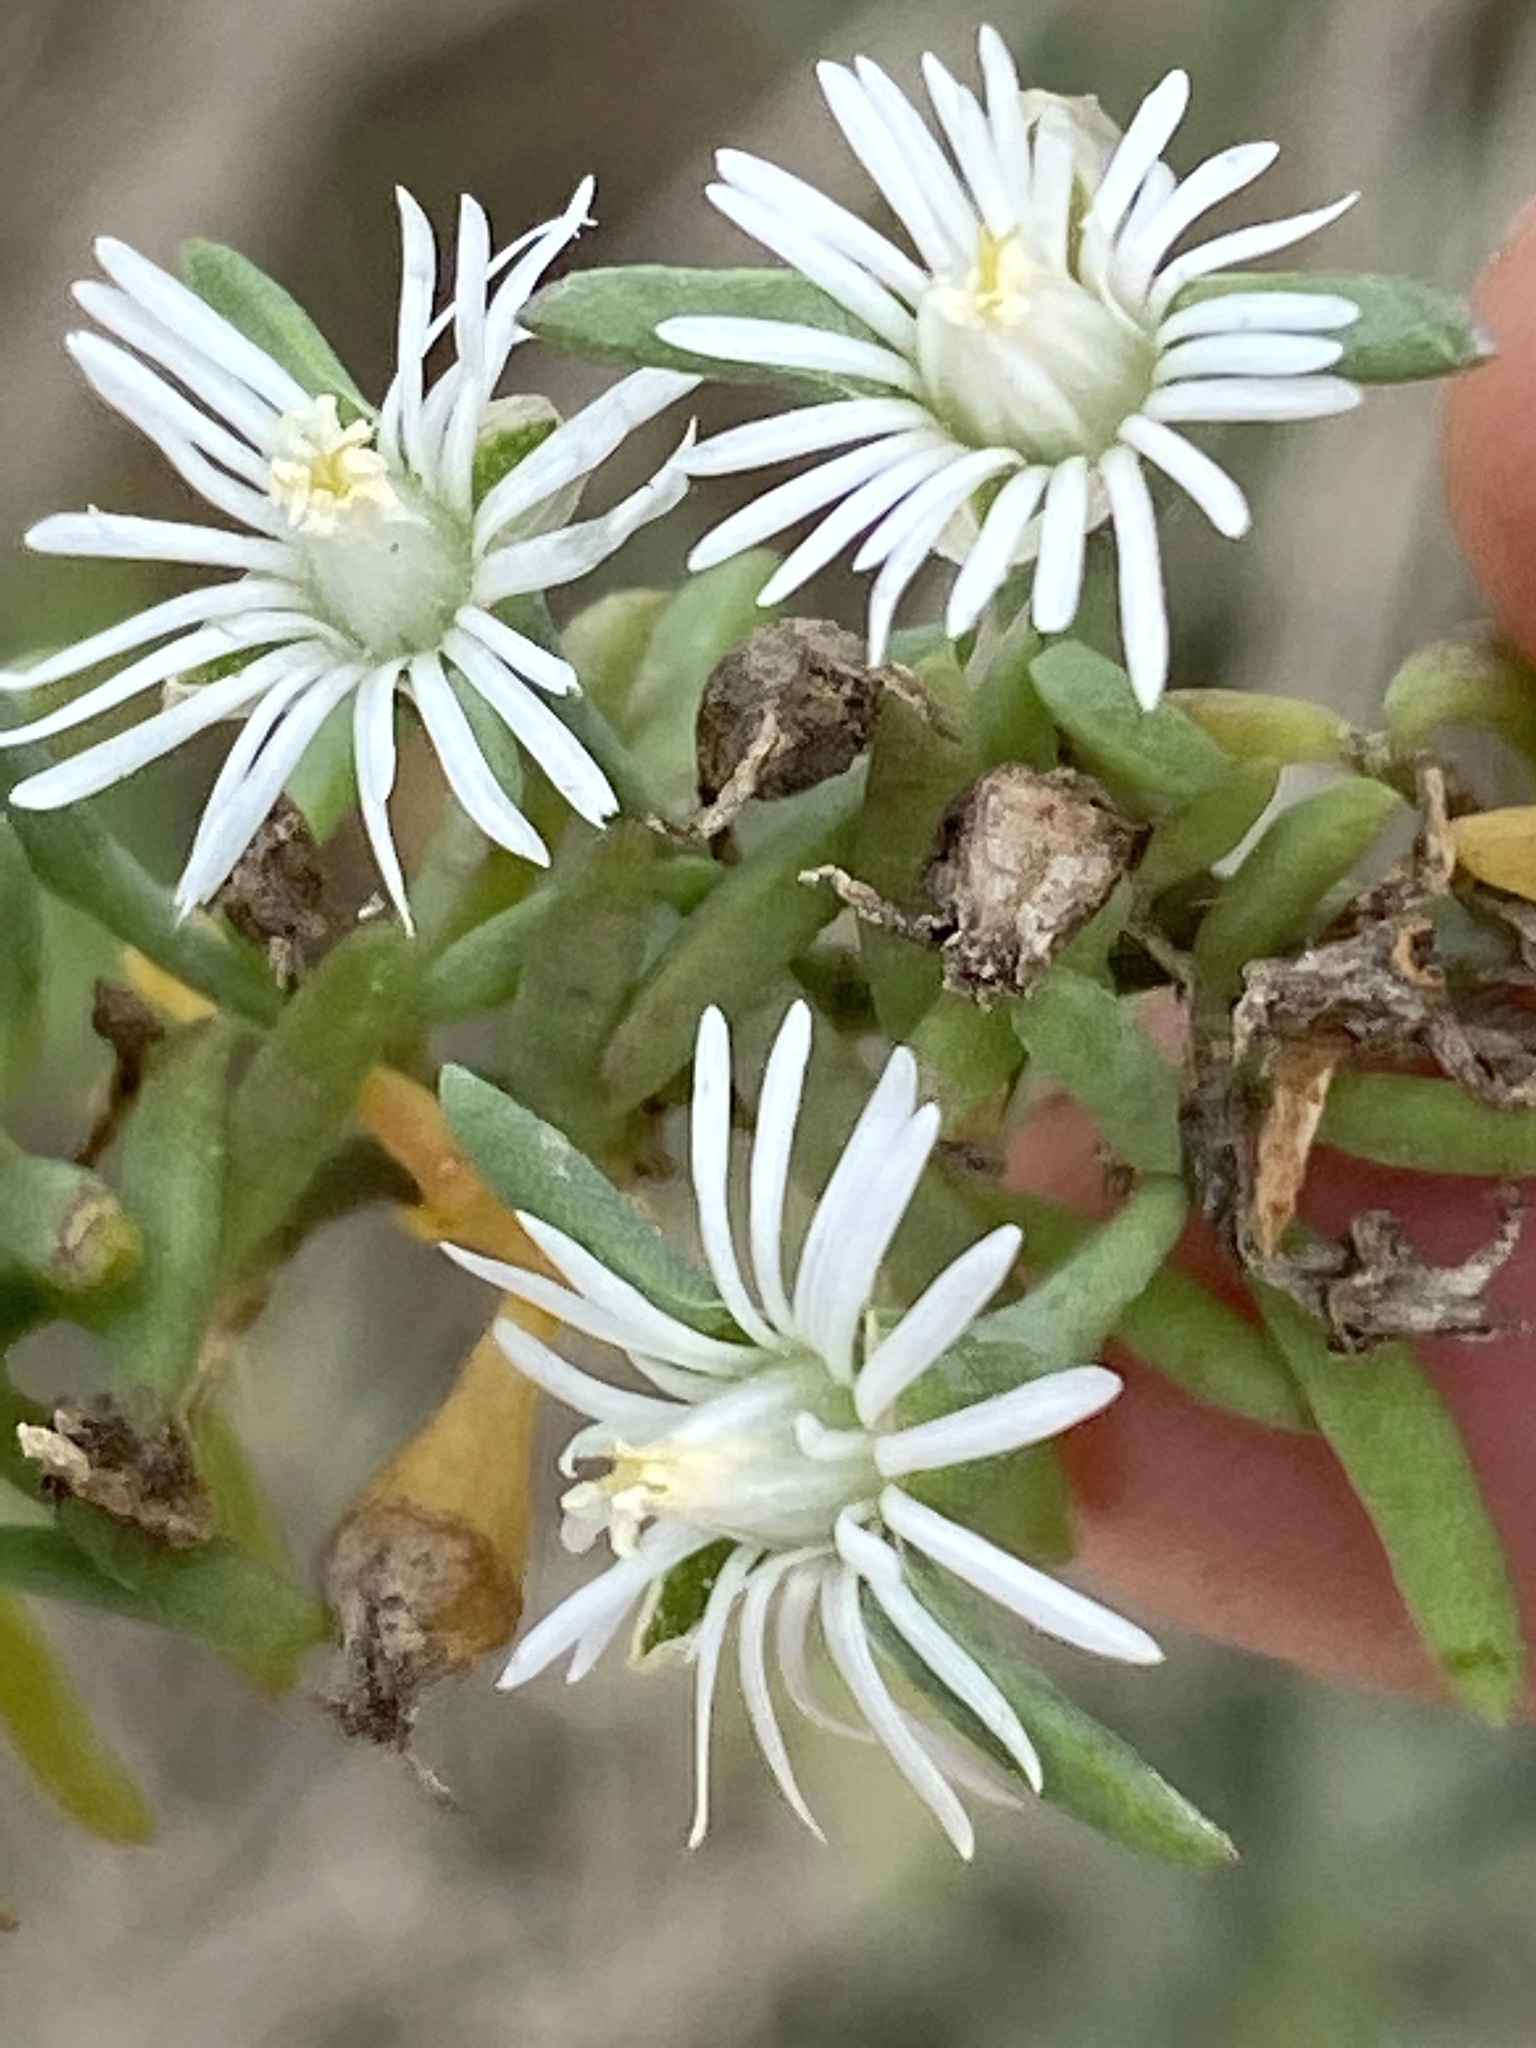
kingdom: Plantae
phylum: Tracheophyta
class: Magnoliopsida
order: Caryophyllales
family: Aizoaceae
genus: Mesembryanthemum
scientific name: Mesembryanthemum parviflorum
